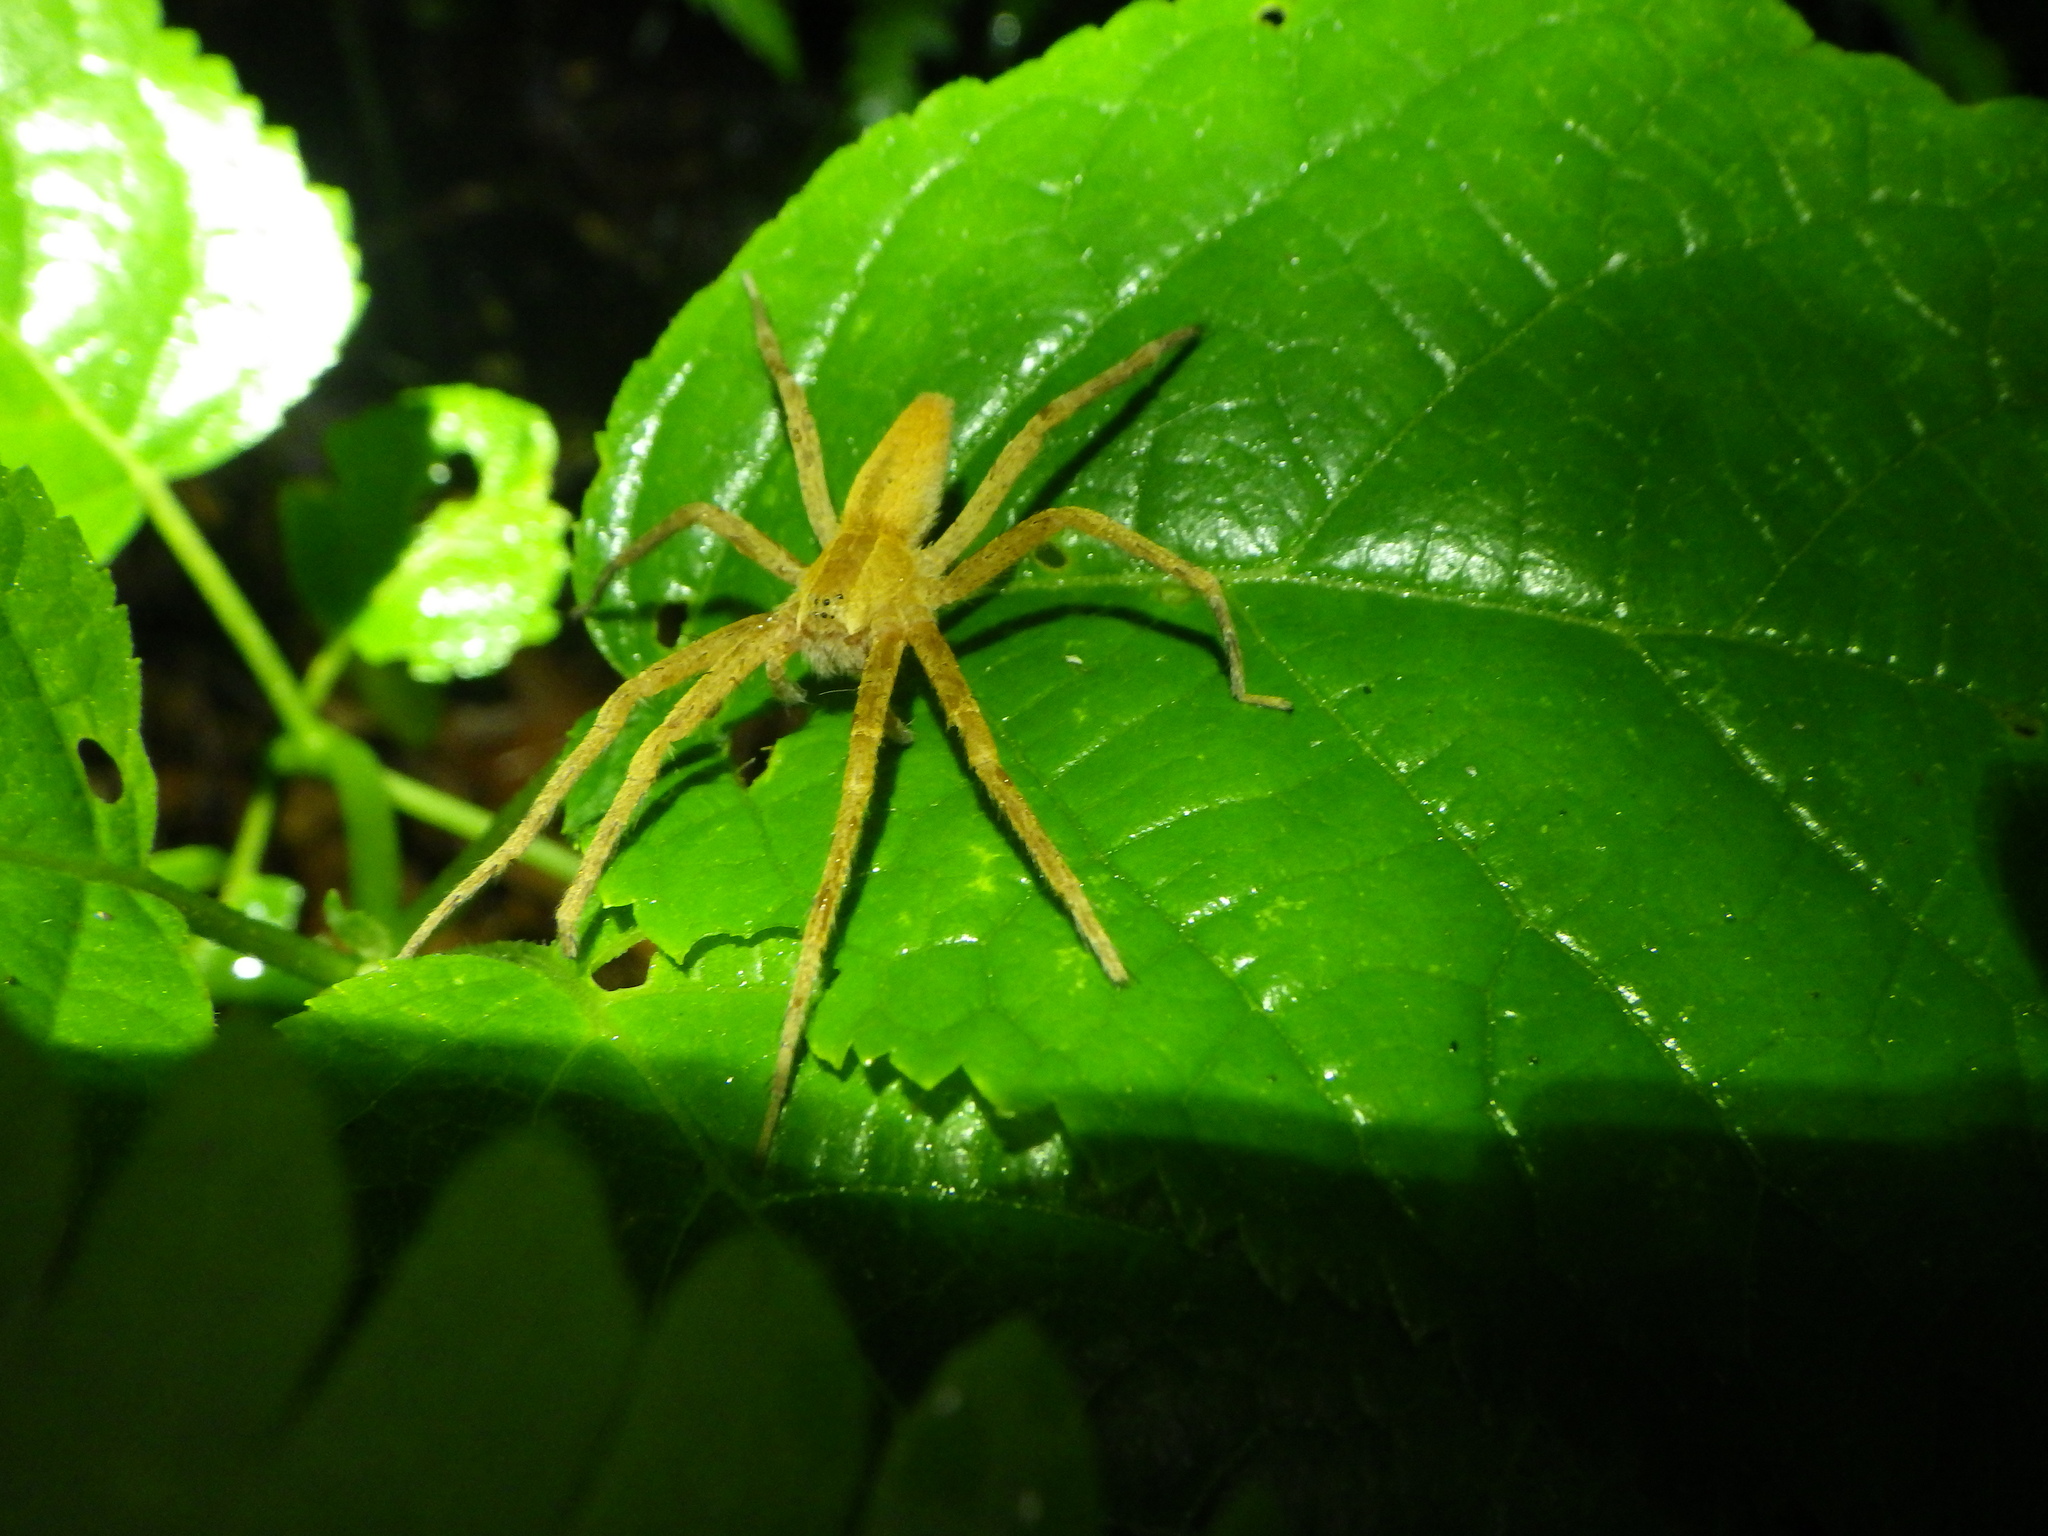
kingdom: Animalia
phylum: Arthropoda
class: Arachnida
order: Araneae
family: Pisauridae
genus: Pisaurina
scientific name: Pisaurina mira
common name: American nursery web spider
